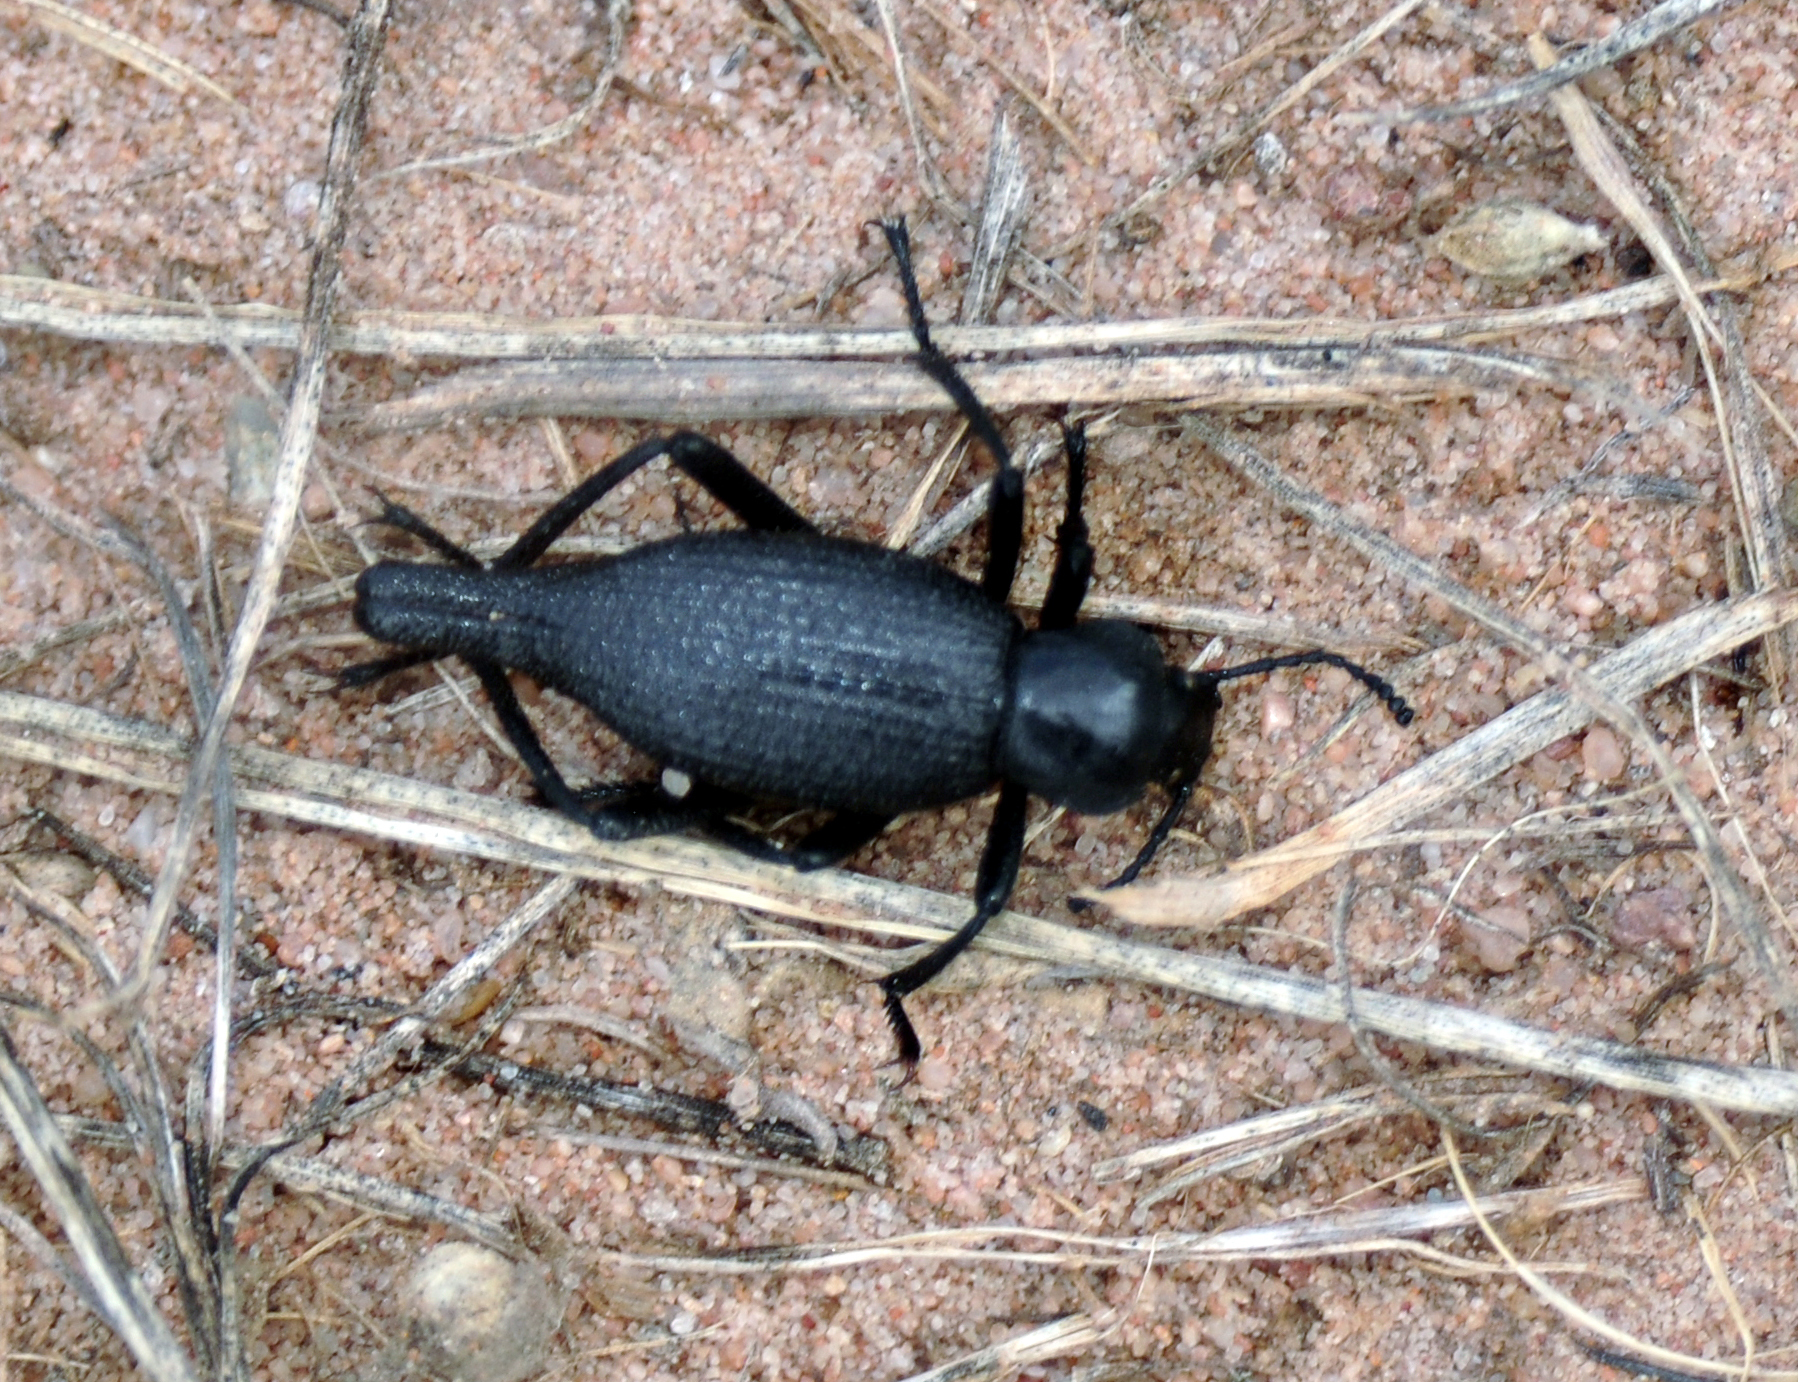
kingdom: Animalia
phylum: Arthropoda
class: Insecta
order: Coleoptera
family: Tenebrionidae
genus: Eleodes
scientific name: Eleodes caudifera
